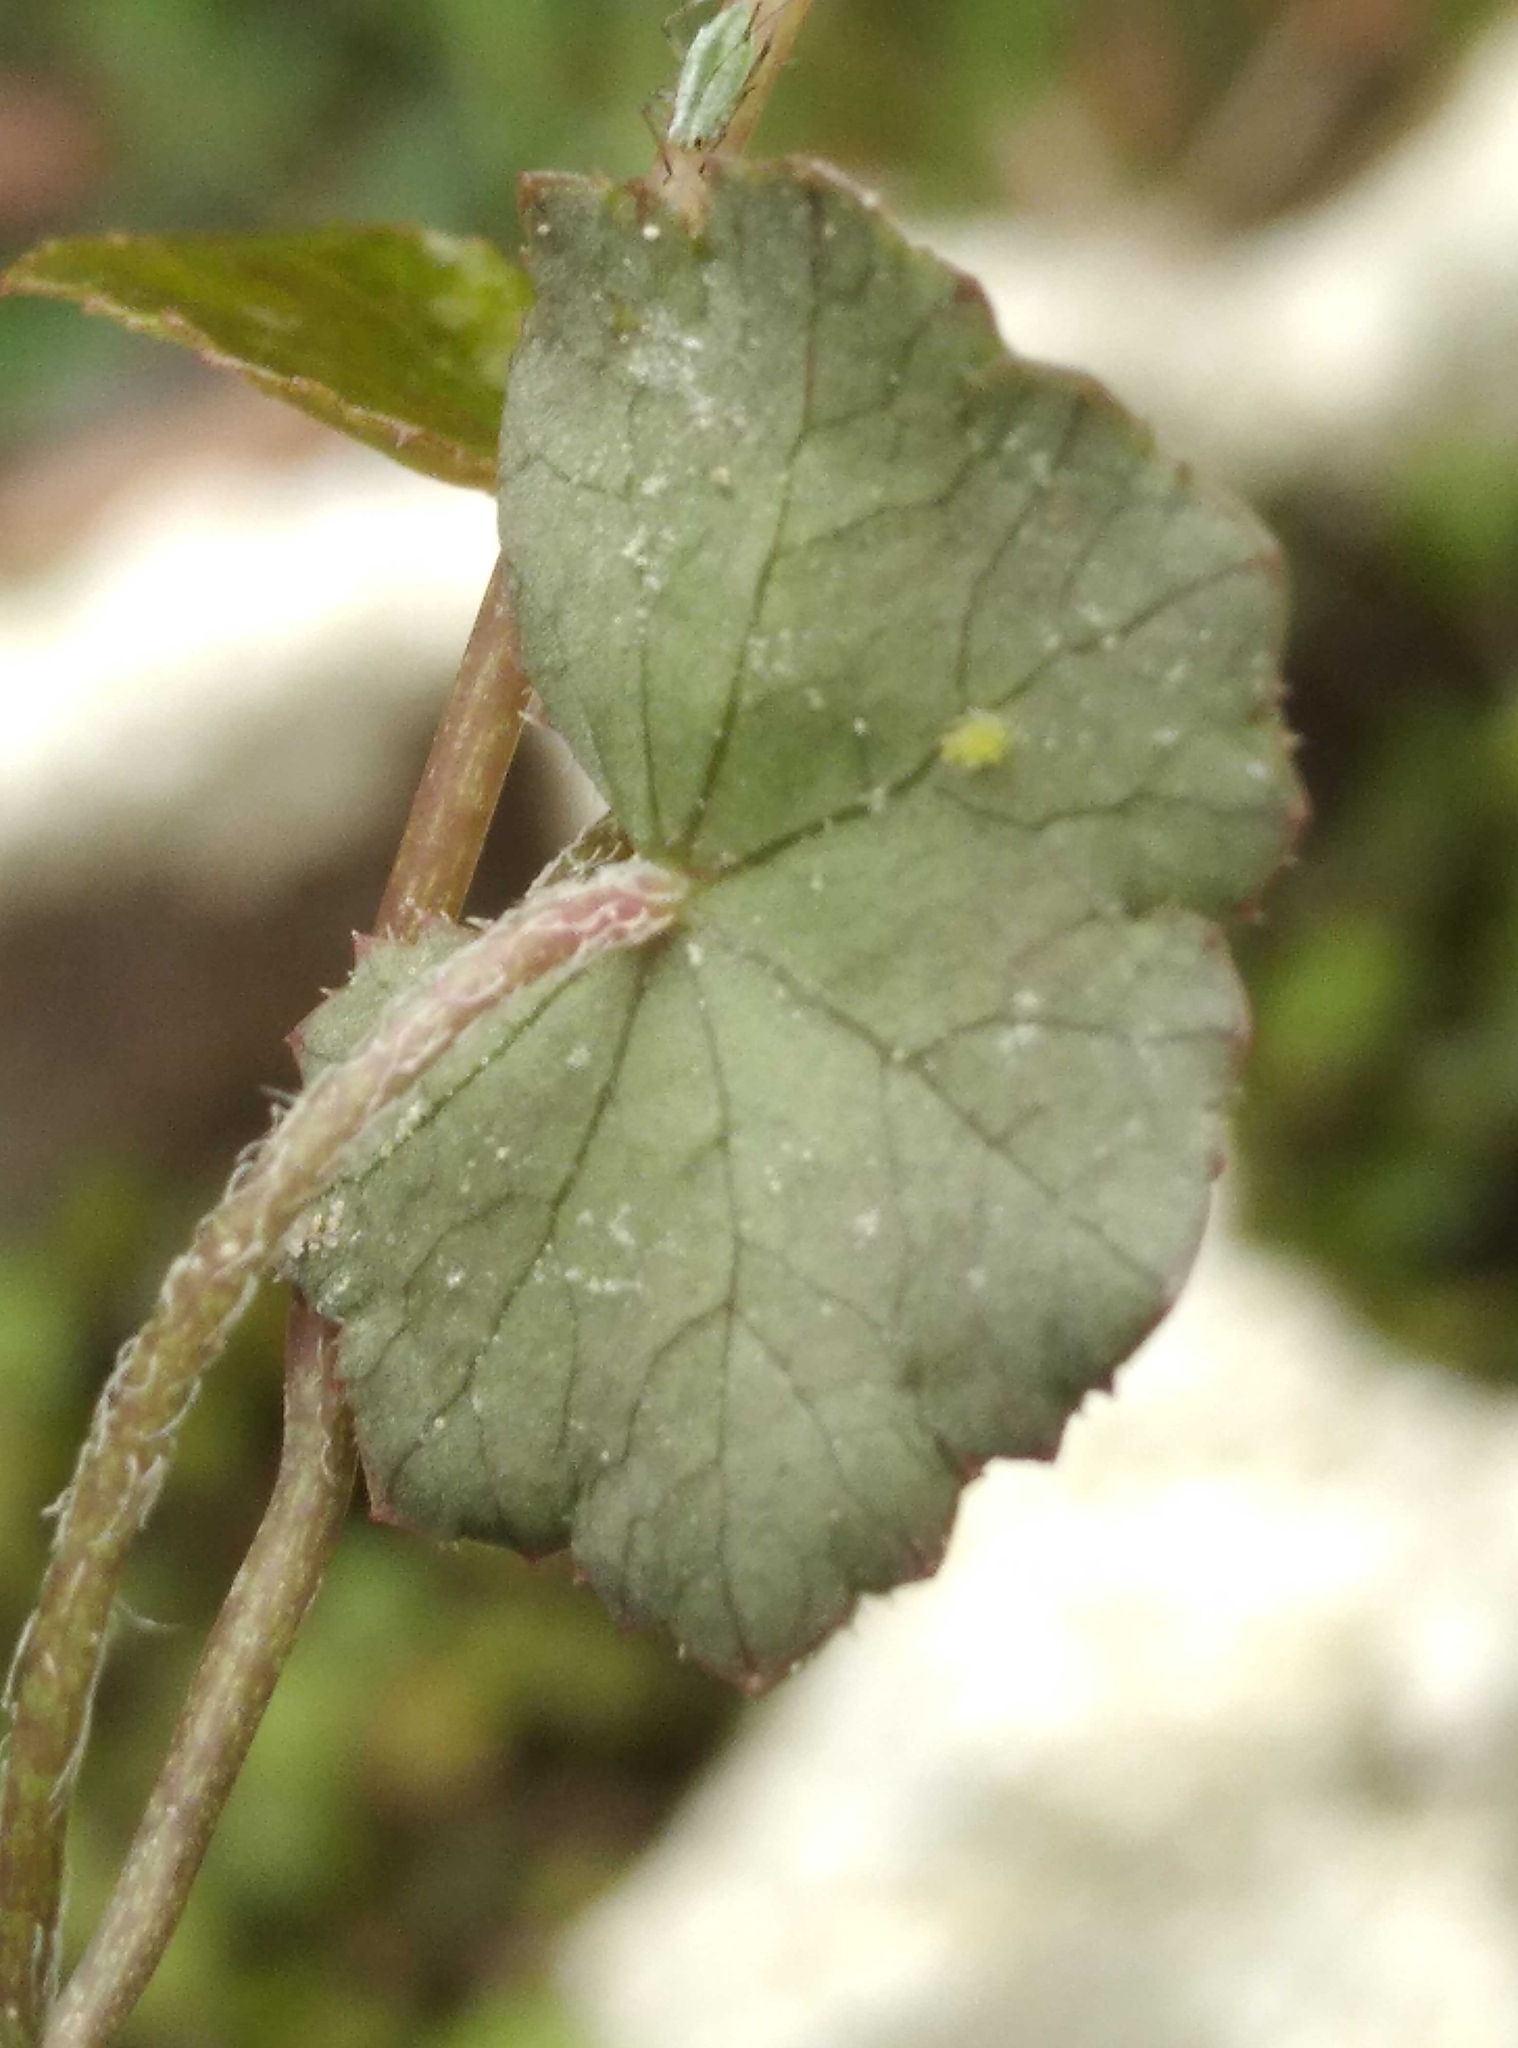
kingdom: Plantae
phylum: Tracheophyta
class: Magnoliopsida
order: Apiales
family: Araliaceae
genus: Hydrocotyle
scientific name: Hydrocotyle novae-zeelandiae
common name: New zealand pennywort
